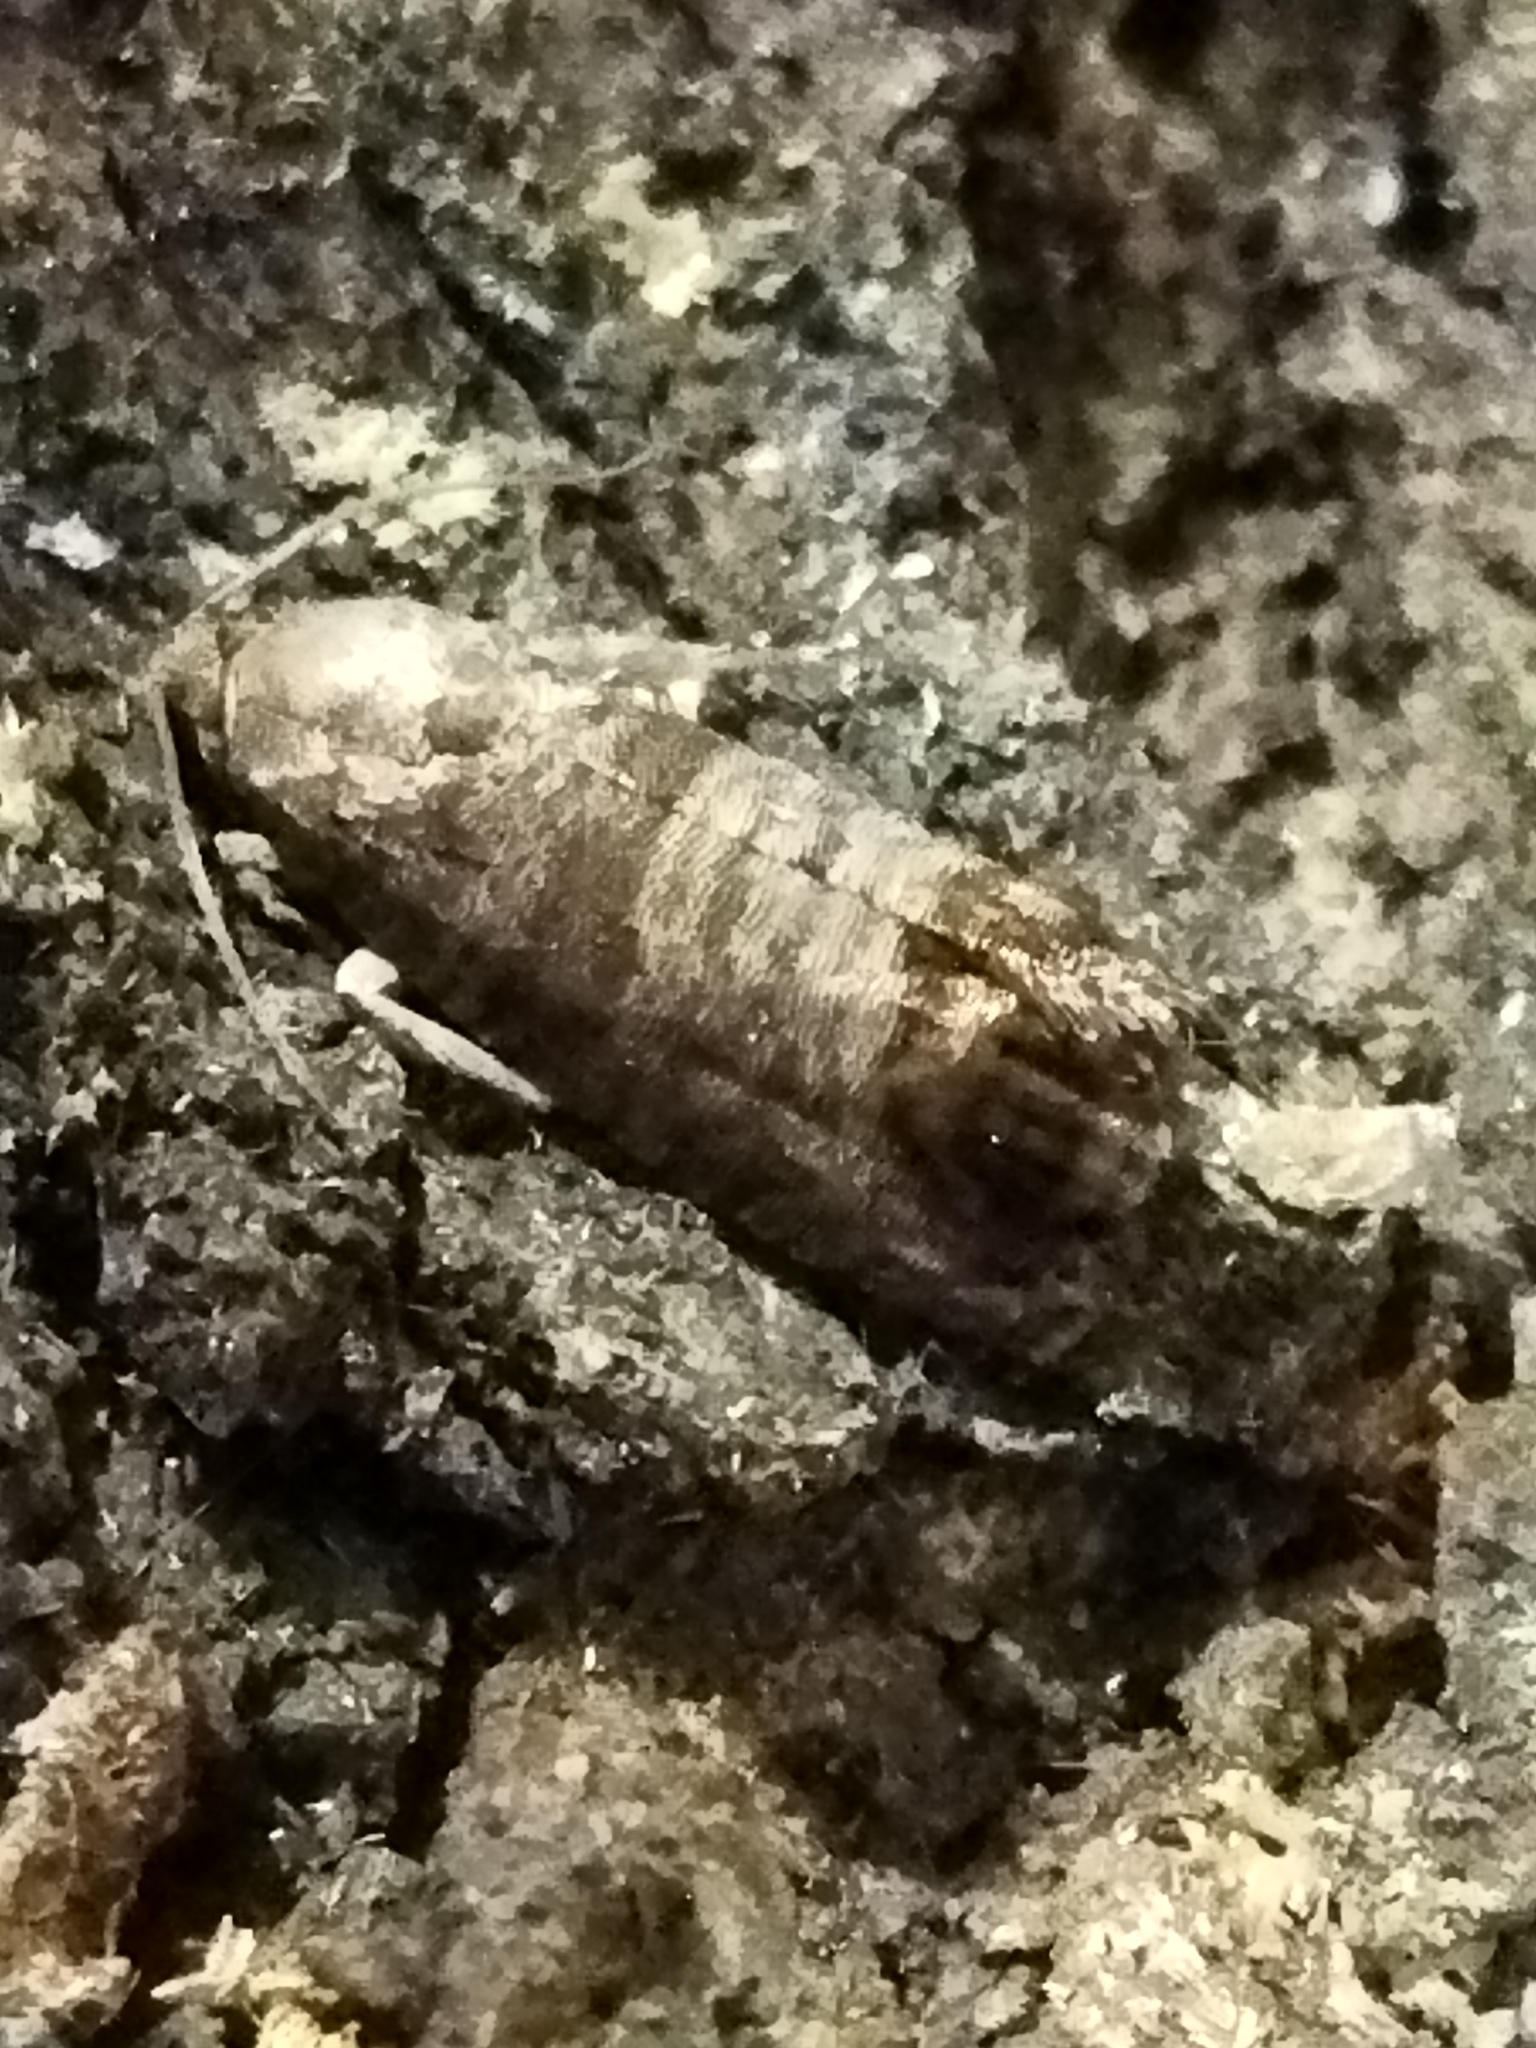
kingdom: Animalia
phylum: Arthropoda
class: Insecta
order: Lepidoptera
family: Tortricidae
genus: Cydia
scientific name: Cydia pomonella
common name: Codling moth
